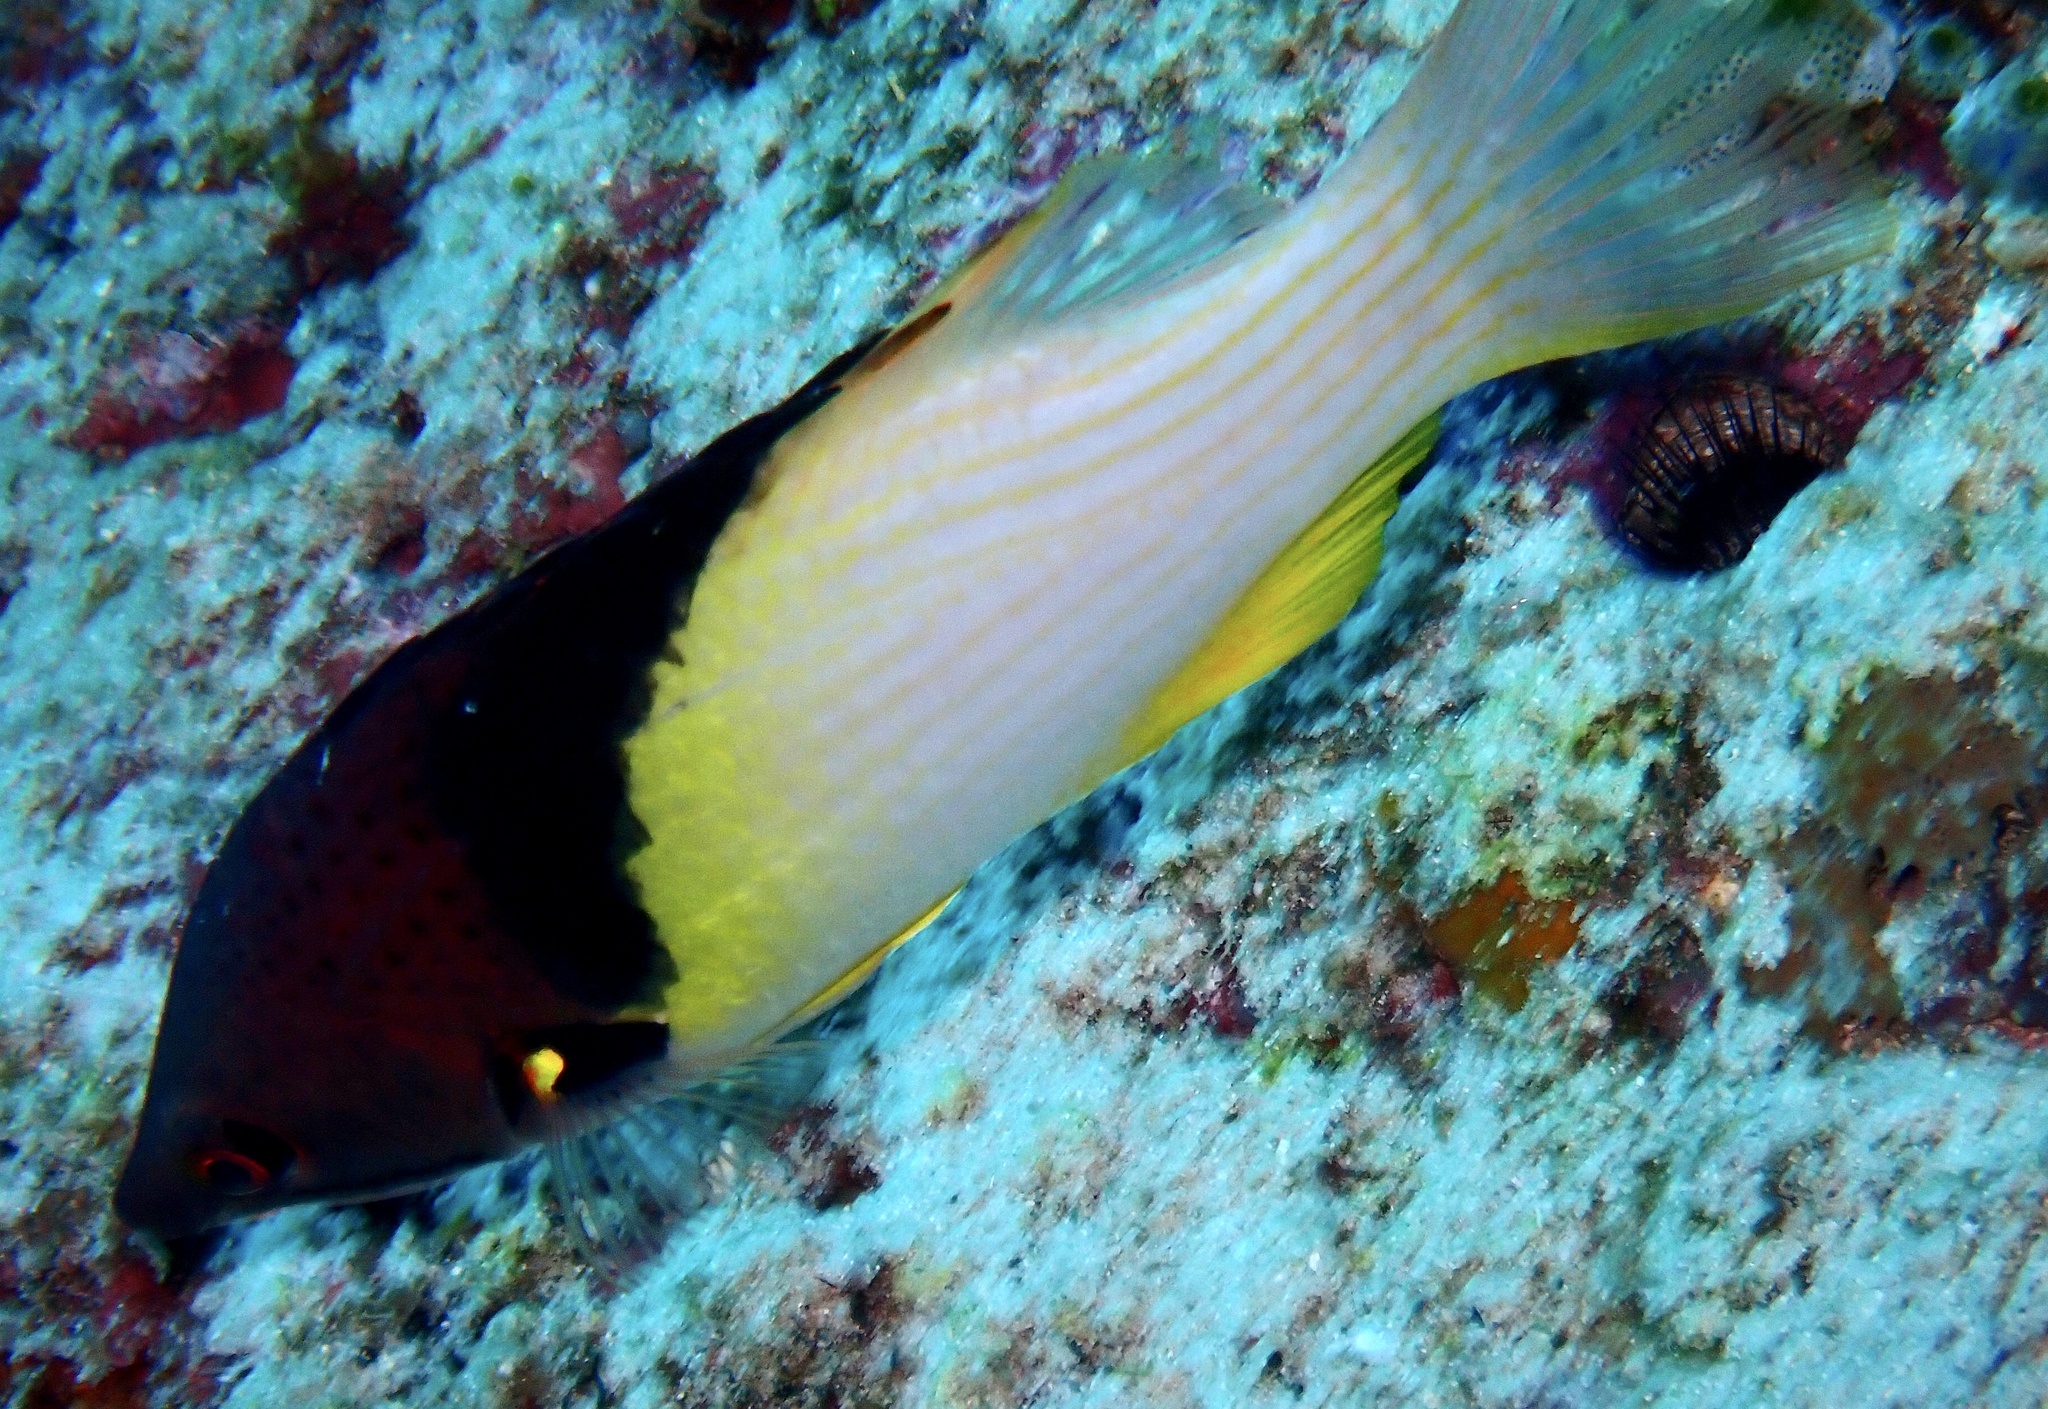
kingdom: Animalia
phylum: Chordata
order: Perciformes
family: Labridae
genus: Bodianus
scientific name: Bodianus mesothorax
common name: Coral hogfish
